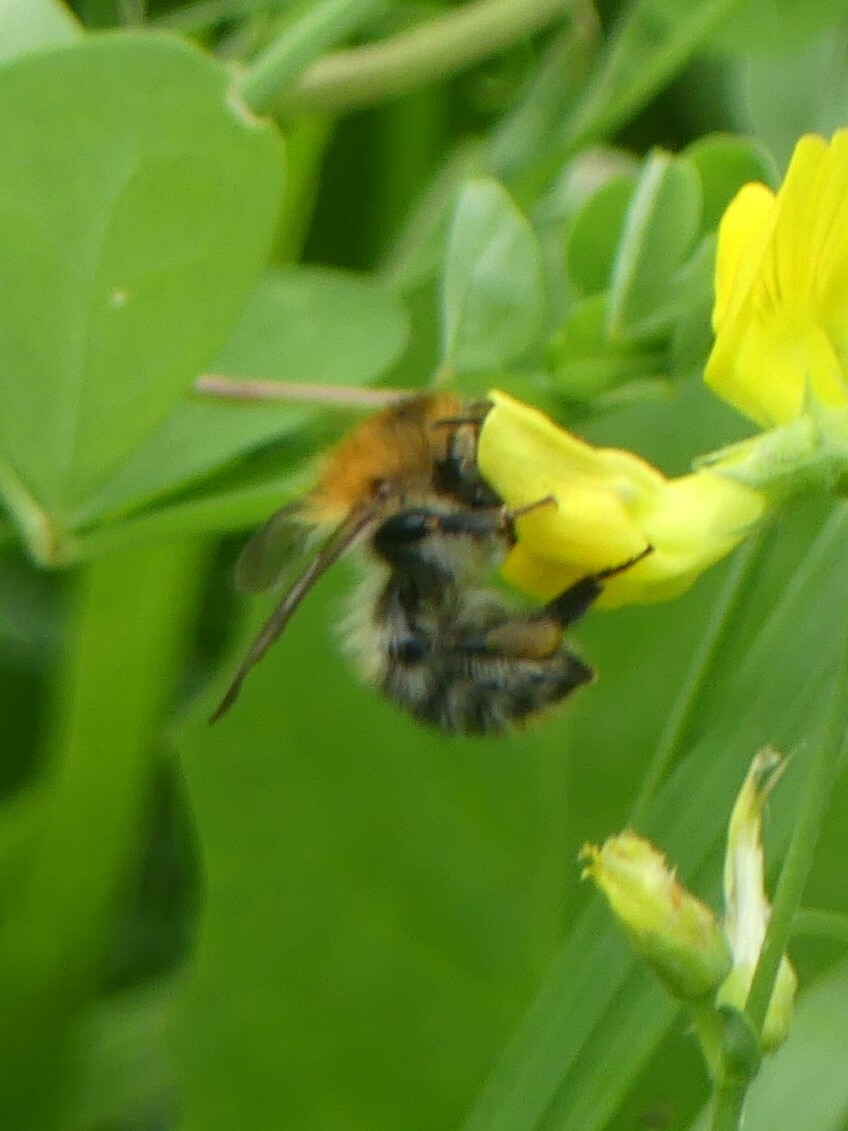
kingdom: Animalia
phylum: Arthropoda
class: Insecta
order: Hymenoptera
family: Apidae
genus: Bombus
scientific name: Bombus pascuorum
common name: Common carder bee
